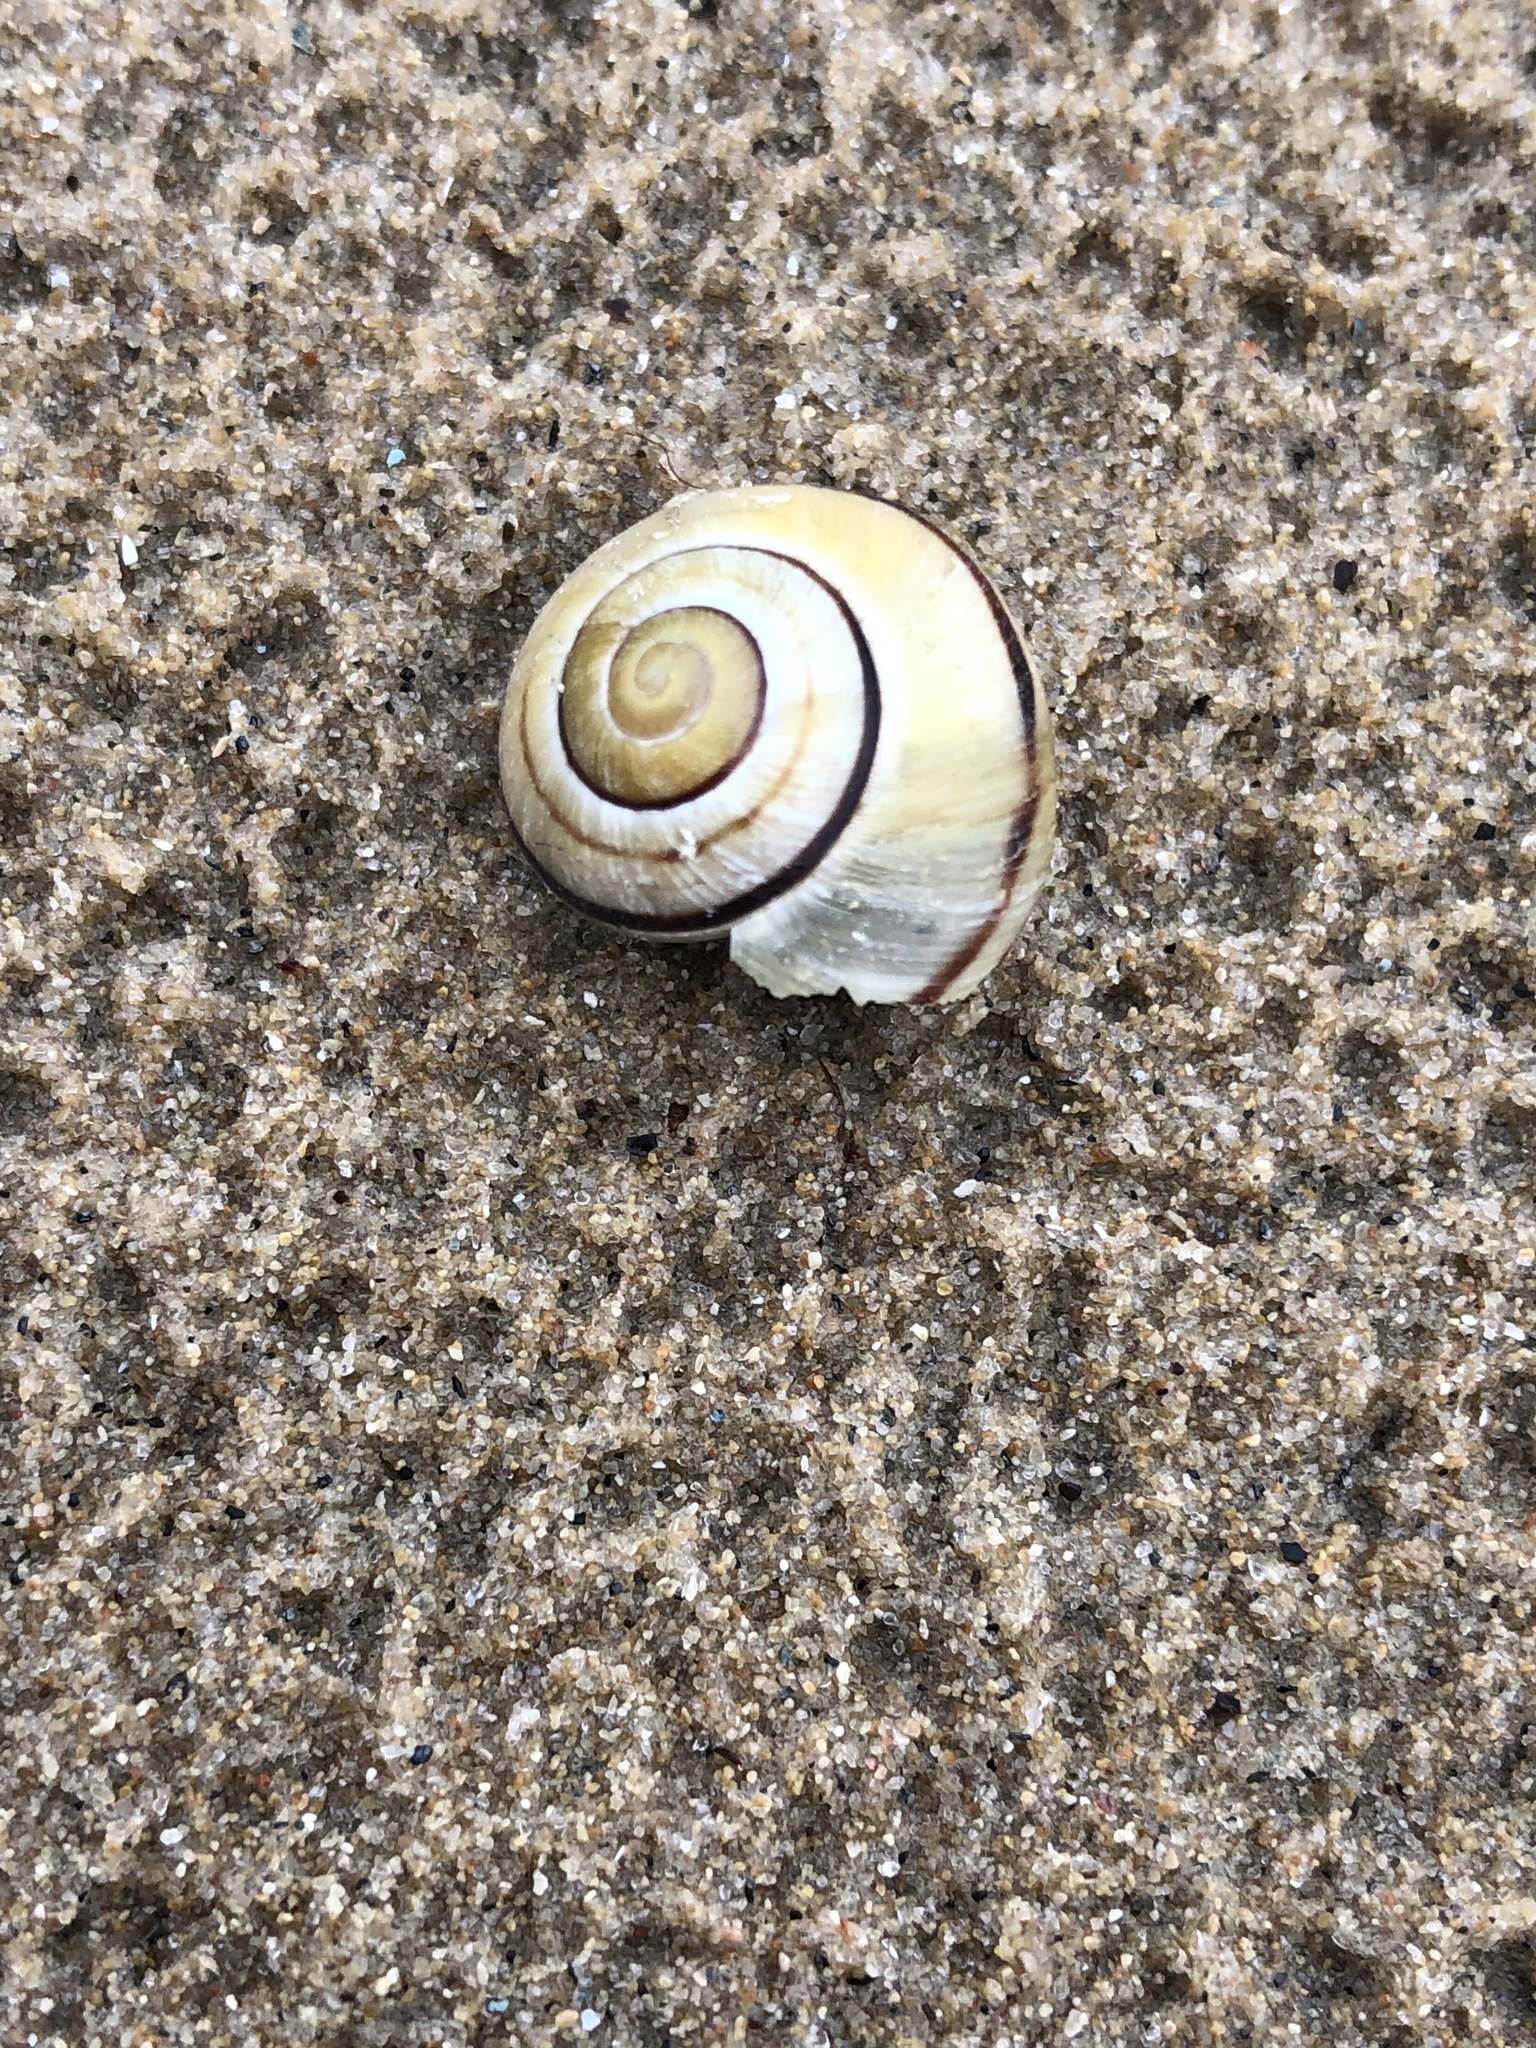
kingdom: Animalia
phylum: Mollusca
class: Gastropoda
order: Stylommatophora
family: Helicidae
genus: Cepaea
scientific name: Cepaea nemoralis
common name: Grovesnail
